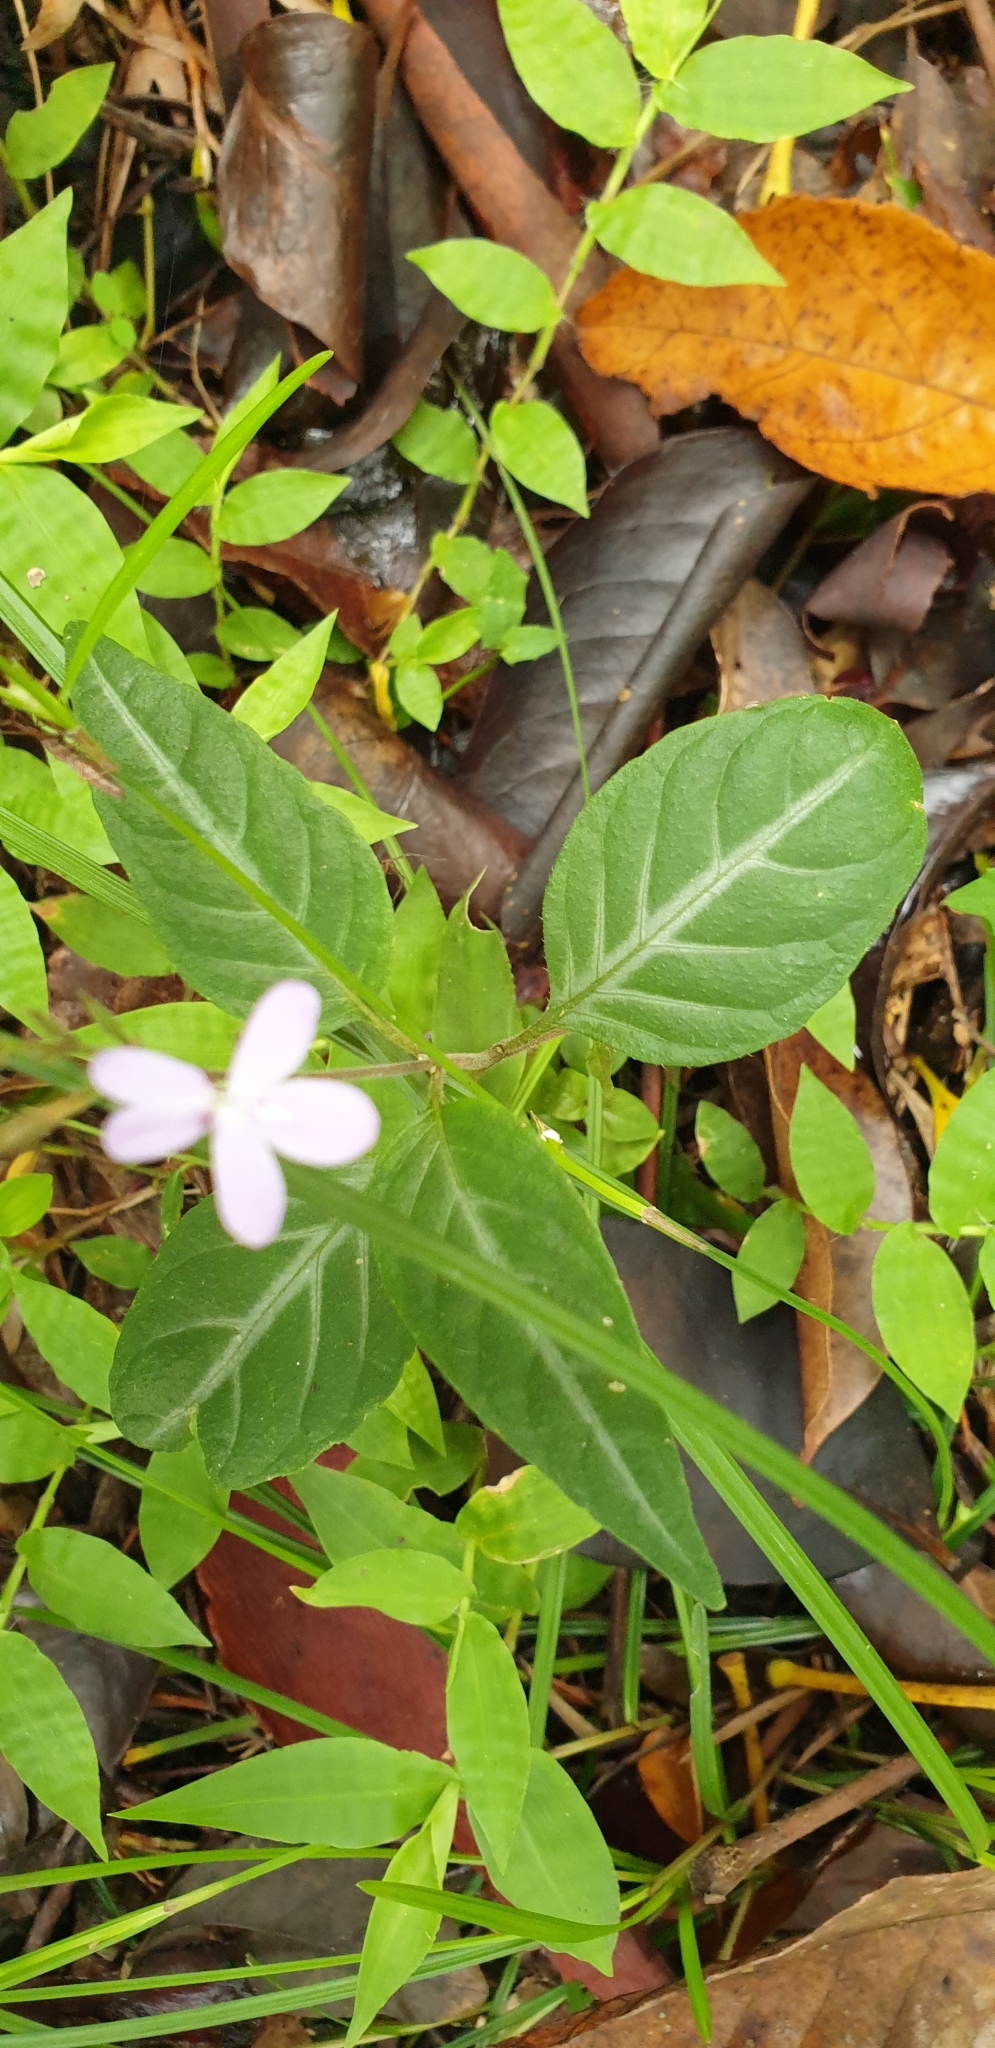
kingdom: Plantae
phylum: Tracheophyta
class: Magnoliopsida
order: Lamiales
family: Acanthaceae
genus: Pseuderanthemum
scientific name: Pseuderanthemum variabile
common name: Night and afternoon
